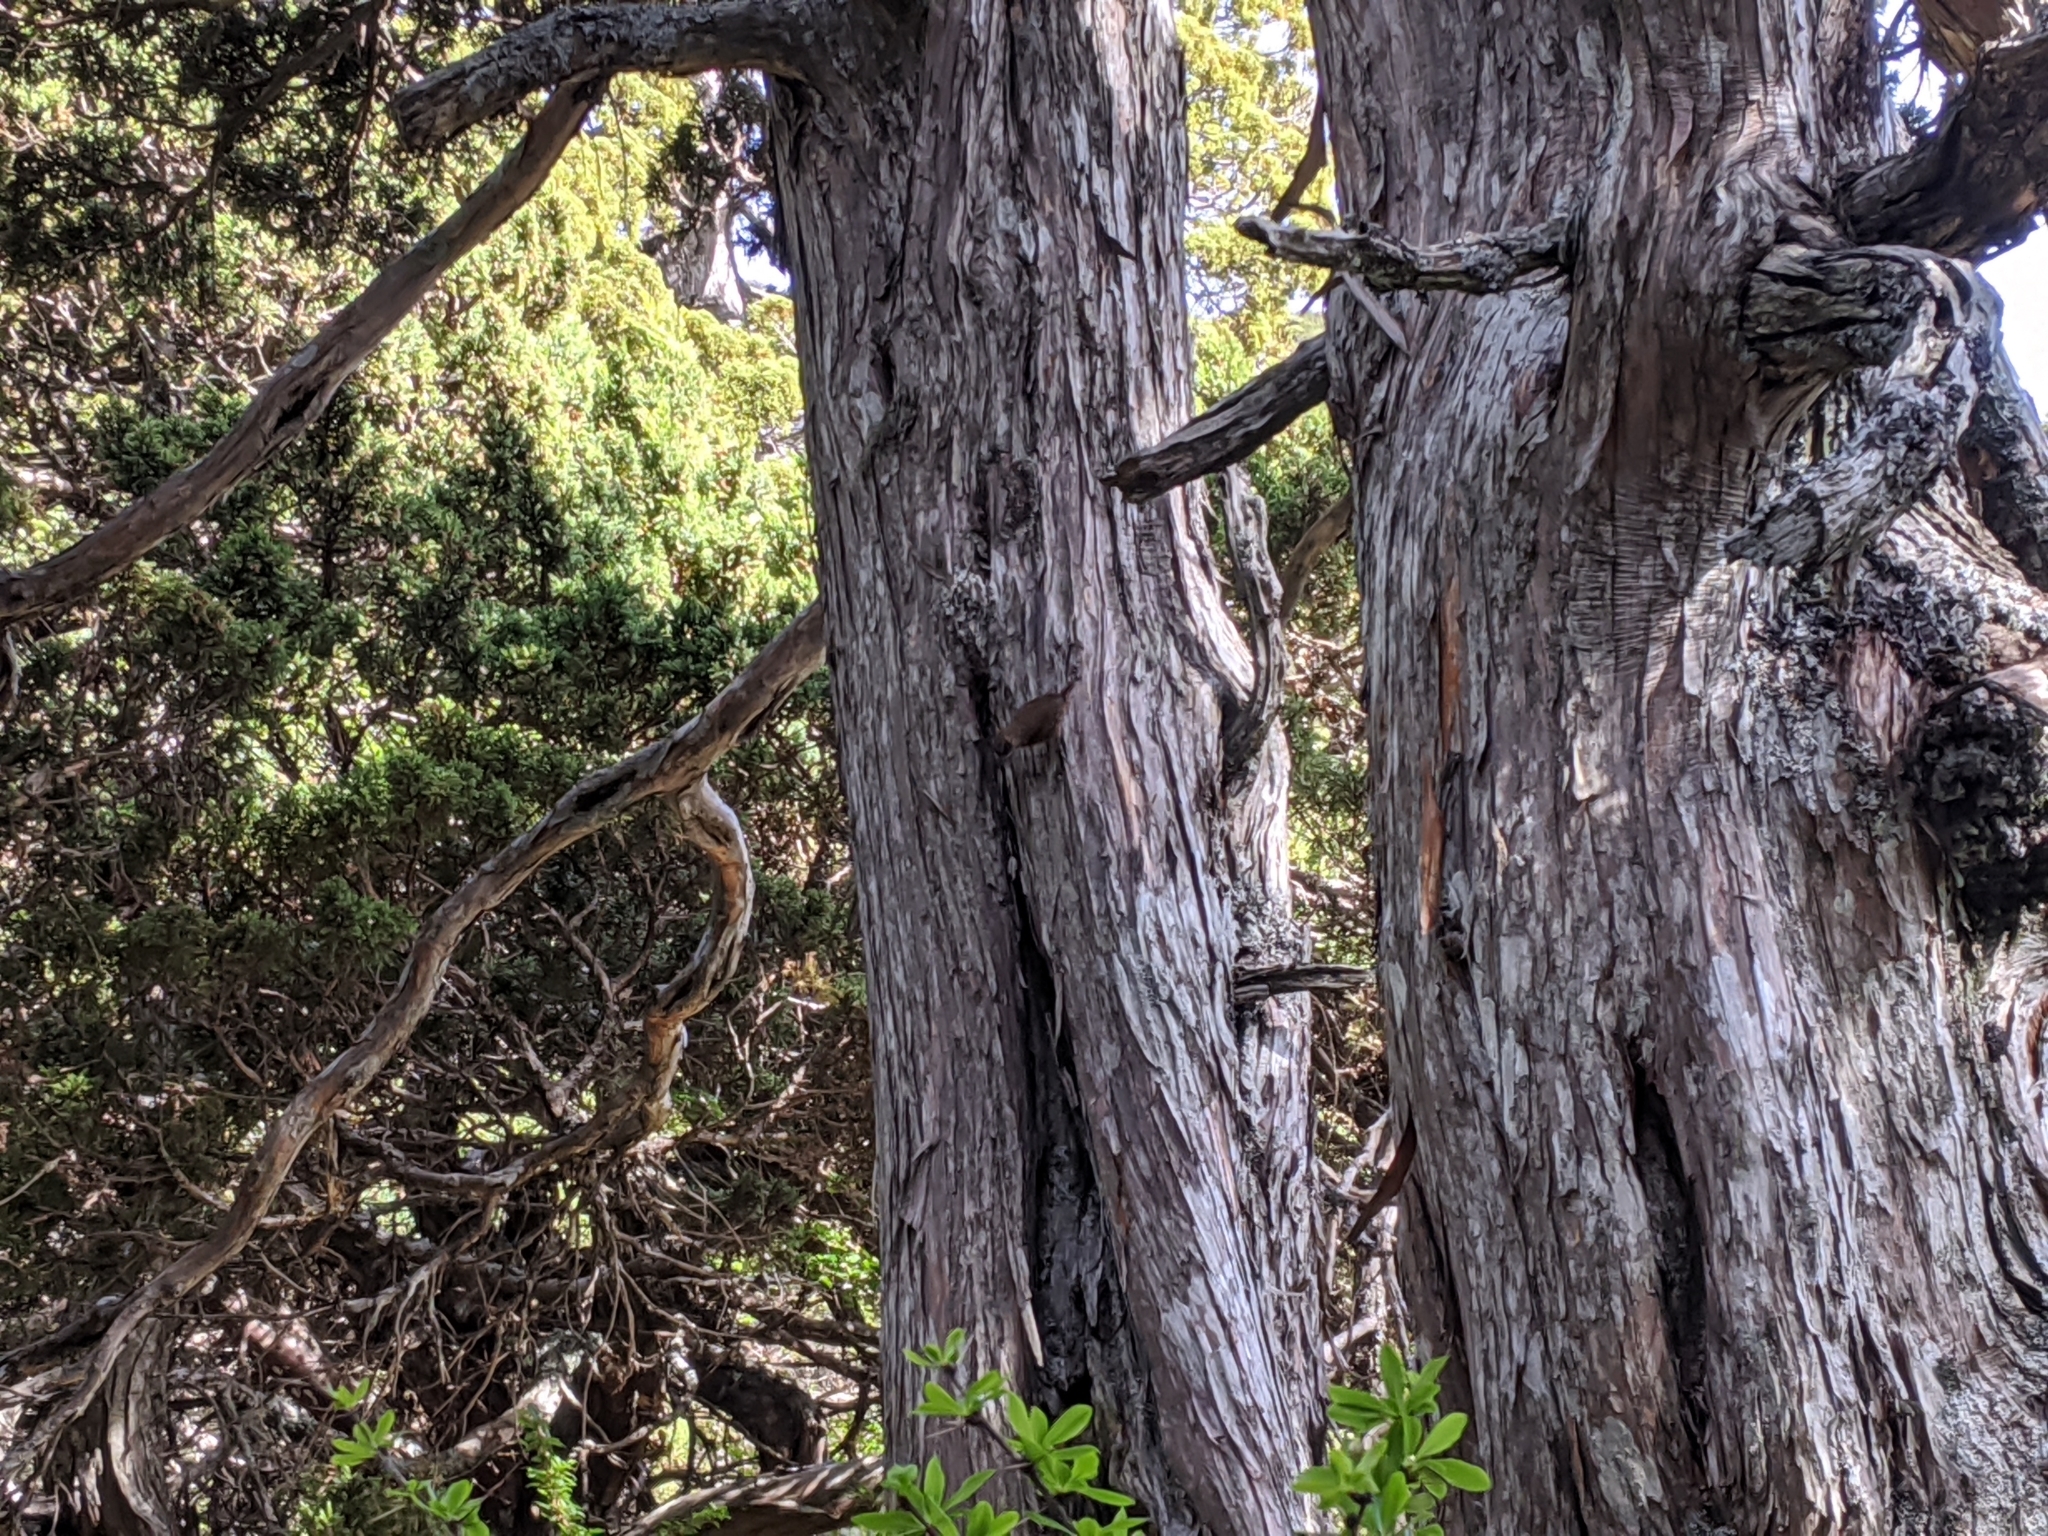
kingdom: Animalia
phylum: Chordata
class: Aves
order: Passeriformes
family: Troglodytidae
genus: Troglodytes
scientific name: Troglodytes troglodytes
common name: Eurasian wren
